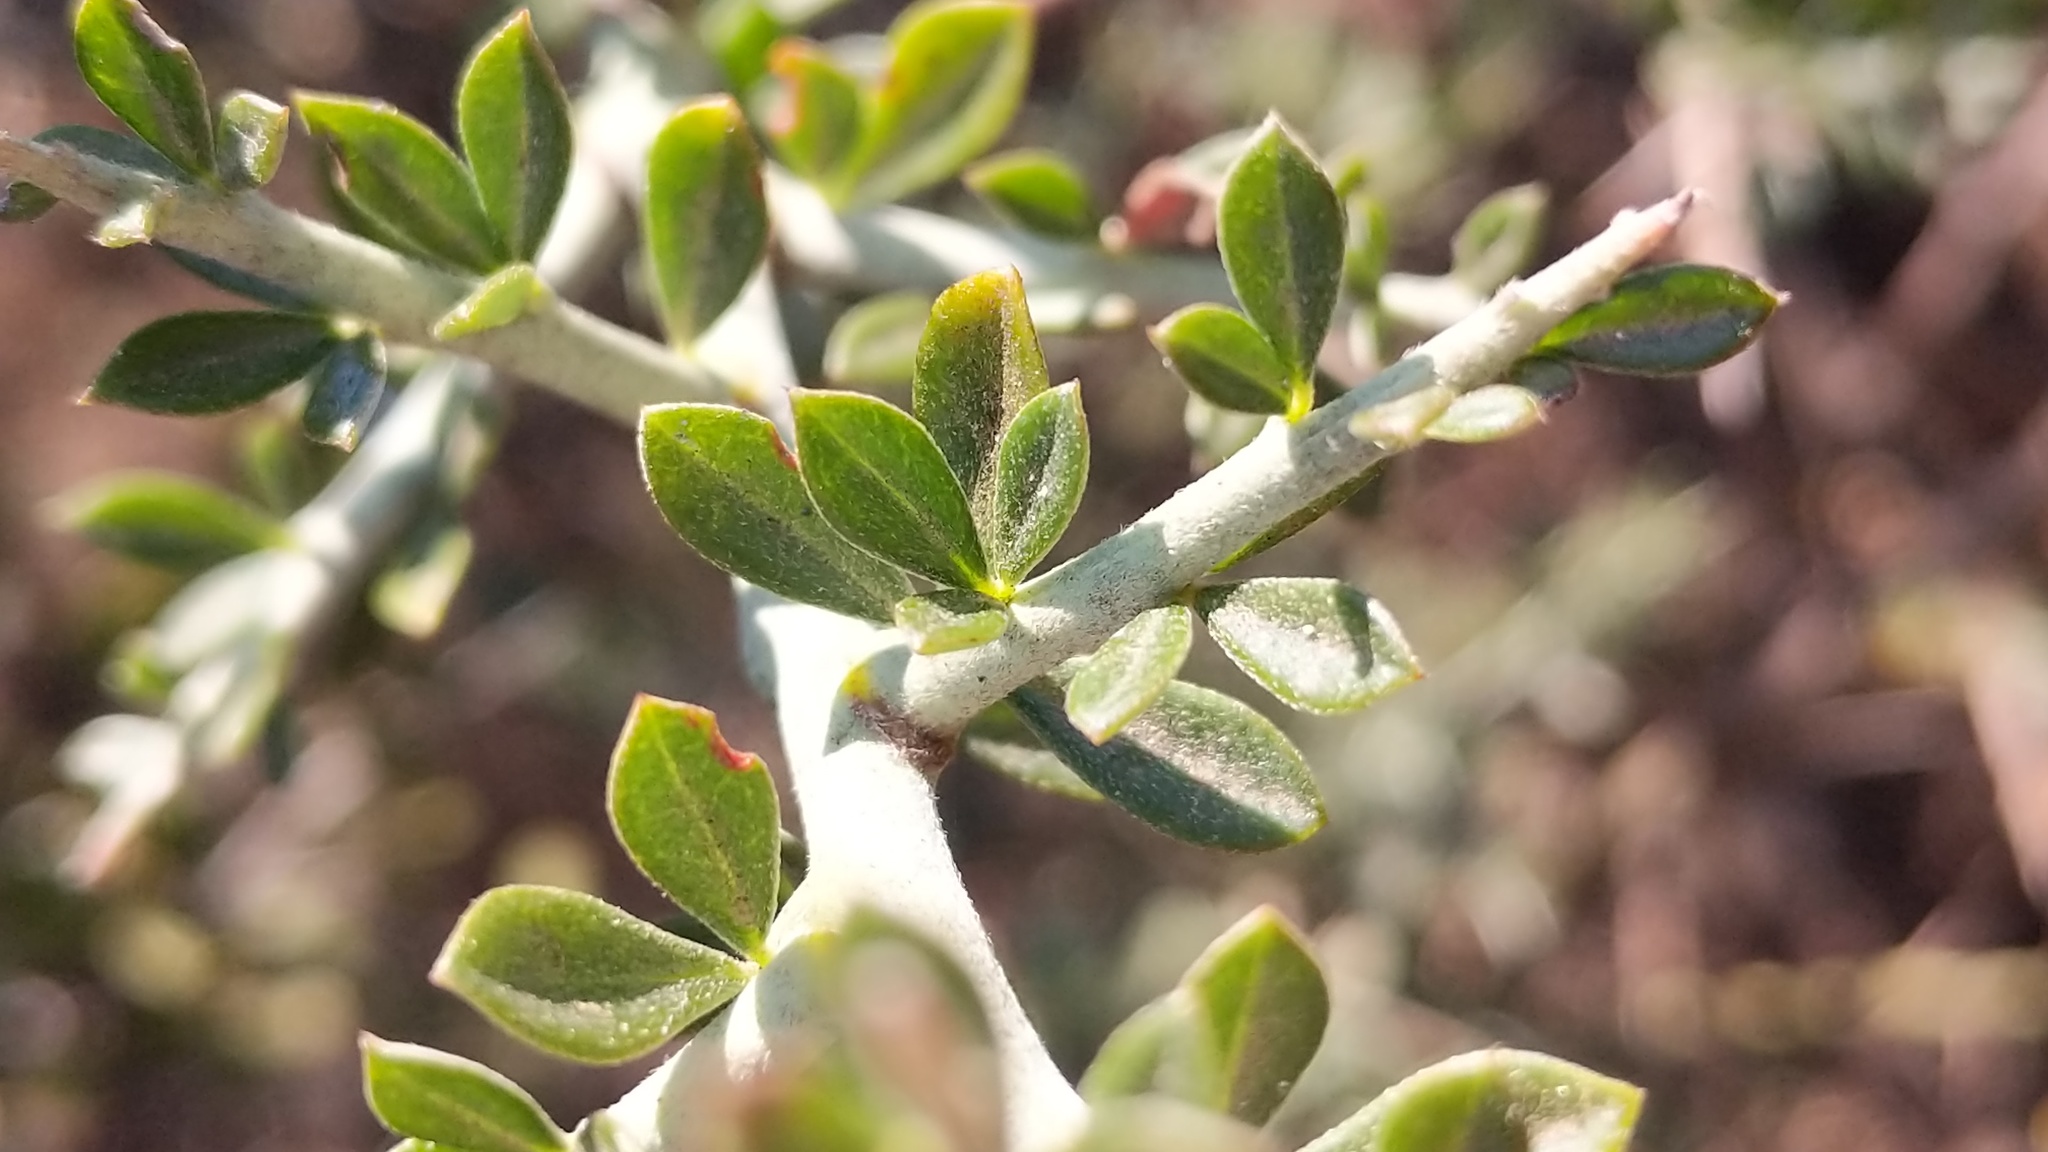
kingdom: Plantae
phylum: Tracheophyta
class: Magnoliopsida
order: Fabales
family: Fabaceae
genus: Pickeringia
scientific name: Pickeringia montana
